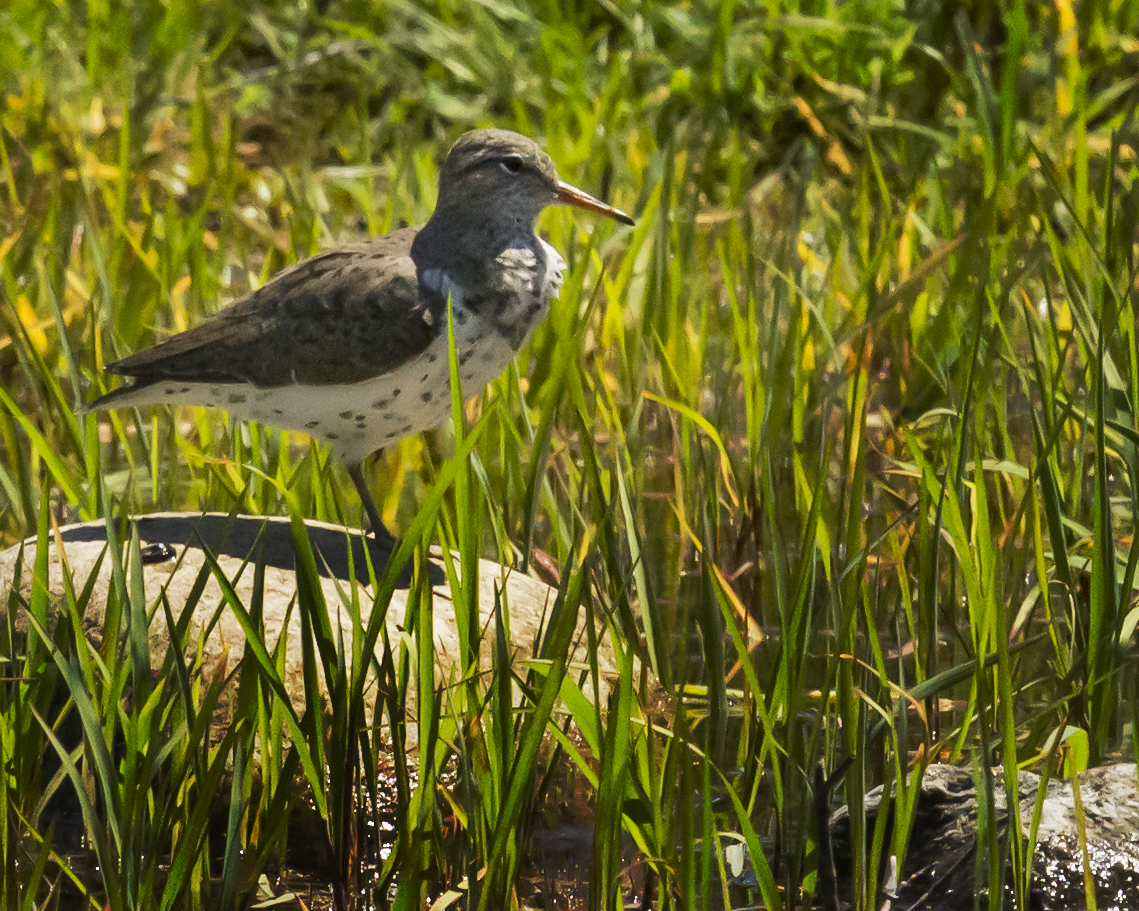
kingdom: Animalia
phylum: Chordata
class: Aves
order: Charadriiformes
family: Scolopacidae
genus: Actitis
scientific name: Actitis macularius
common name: Spotted sandpiper
